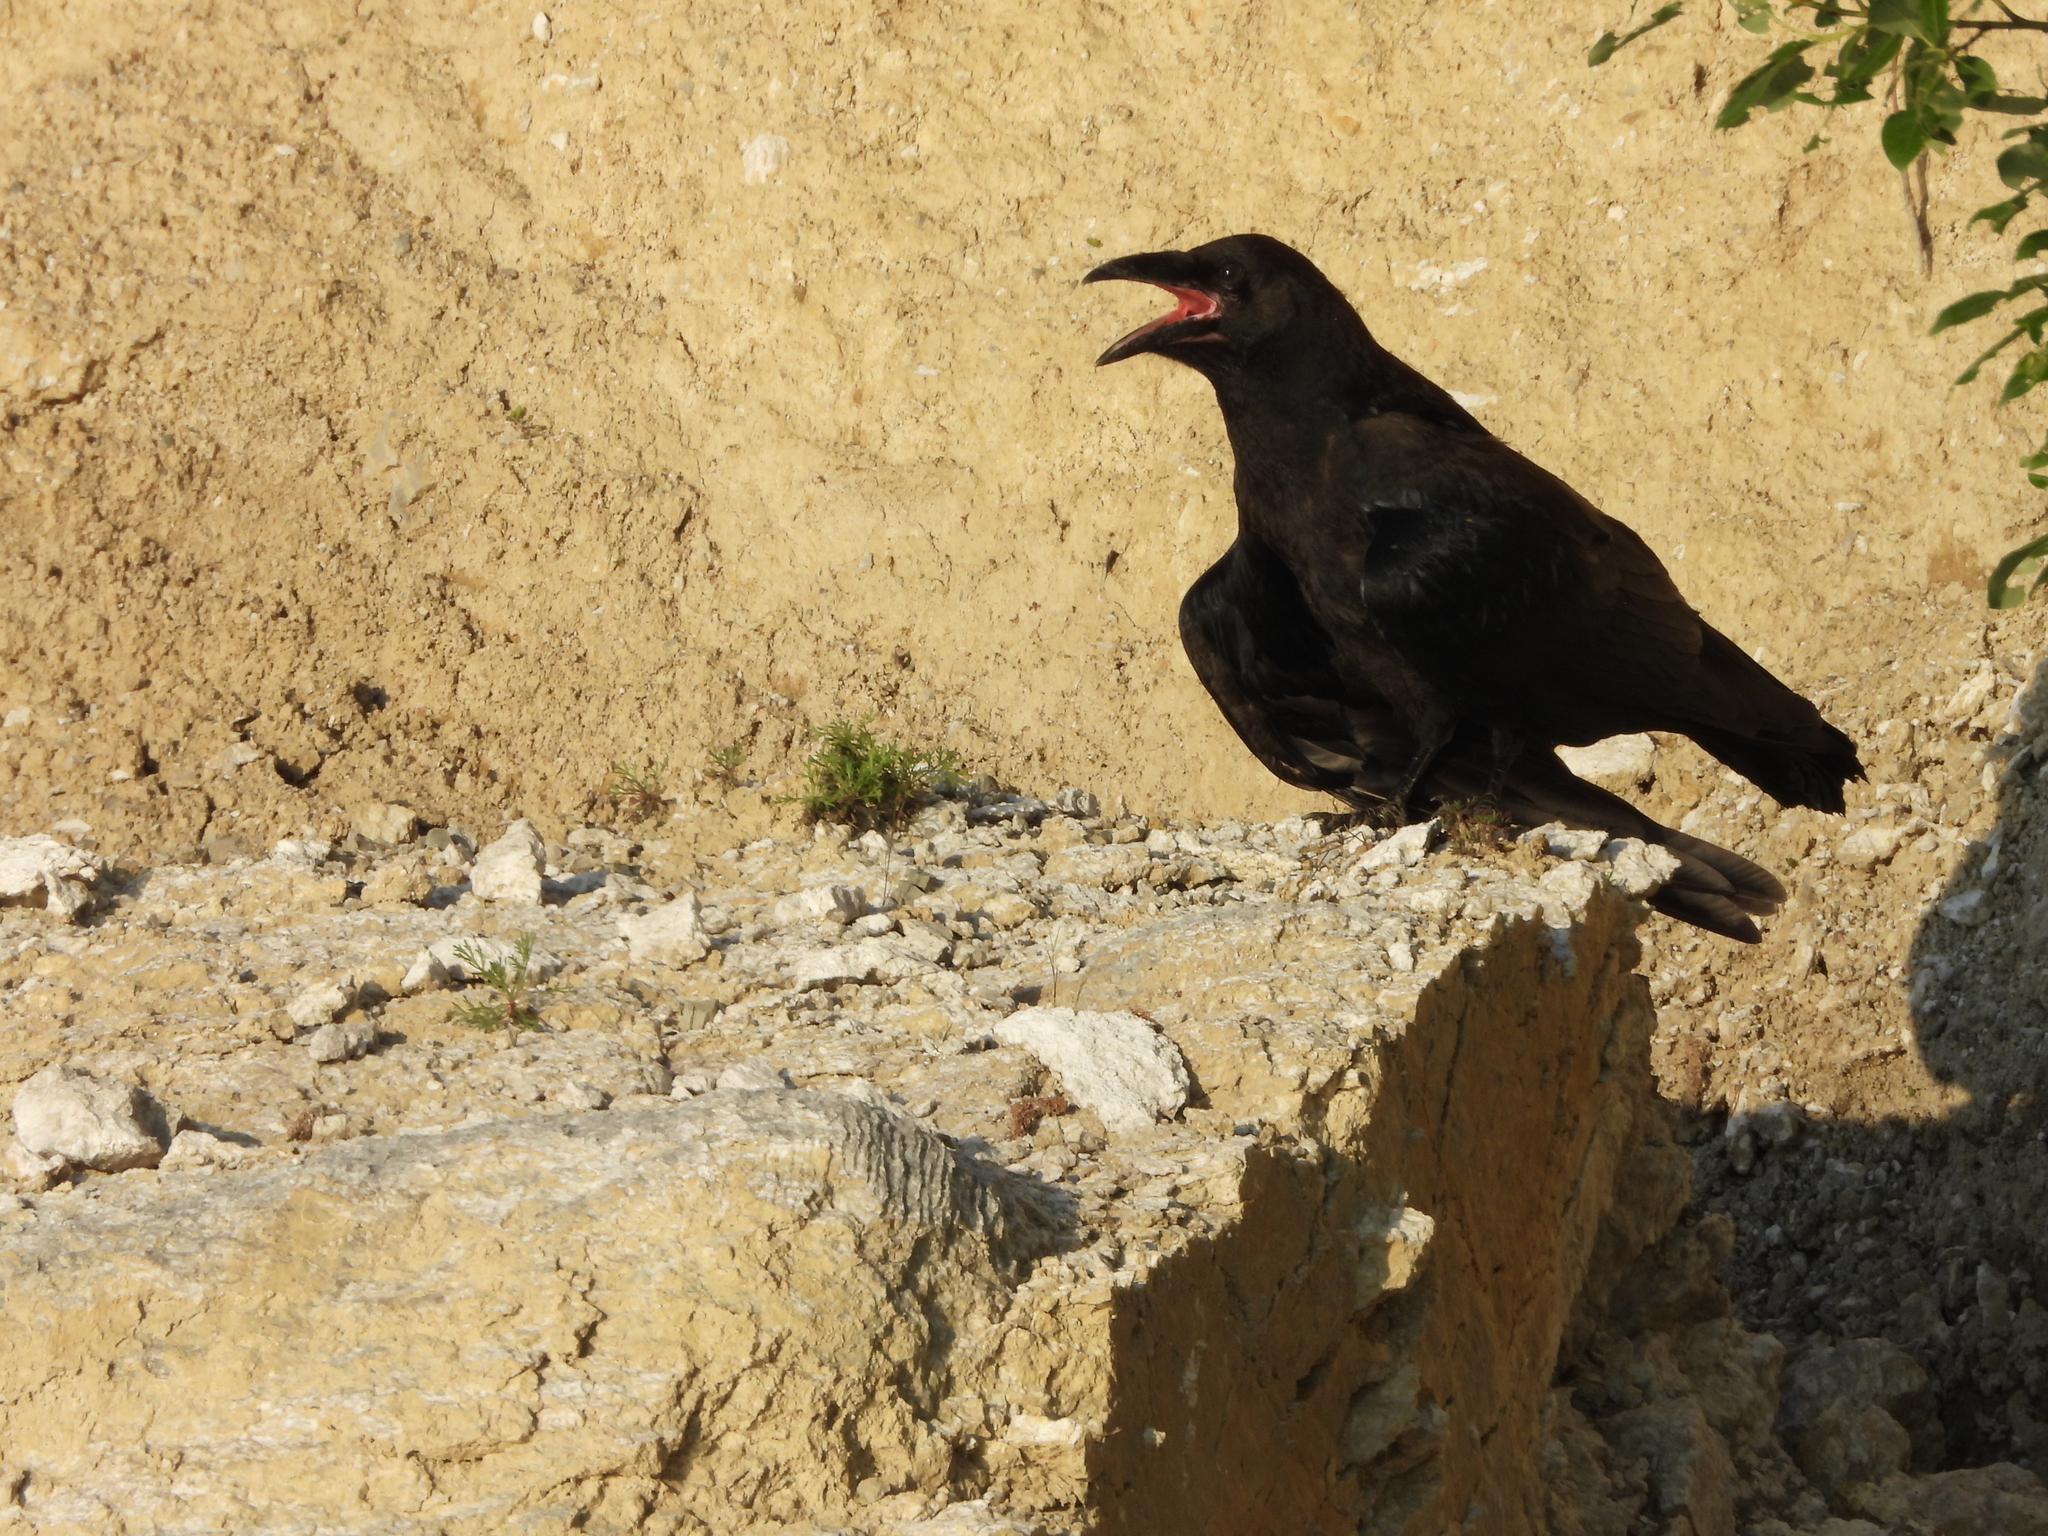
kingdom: Animalia
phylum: Chordata
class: Aves
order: Passeriformes
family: Corvidae
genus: Corvus
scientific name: Corvus corax
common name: Common raven
